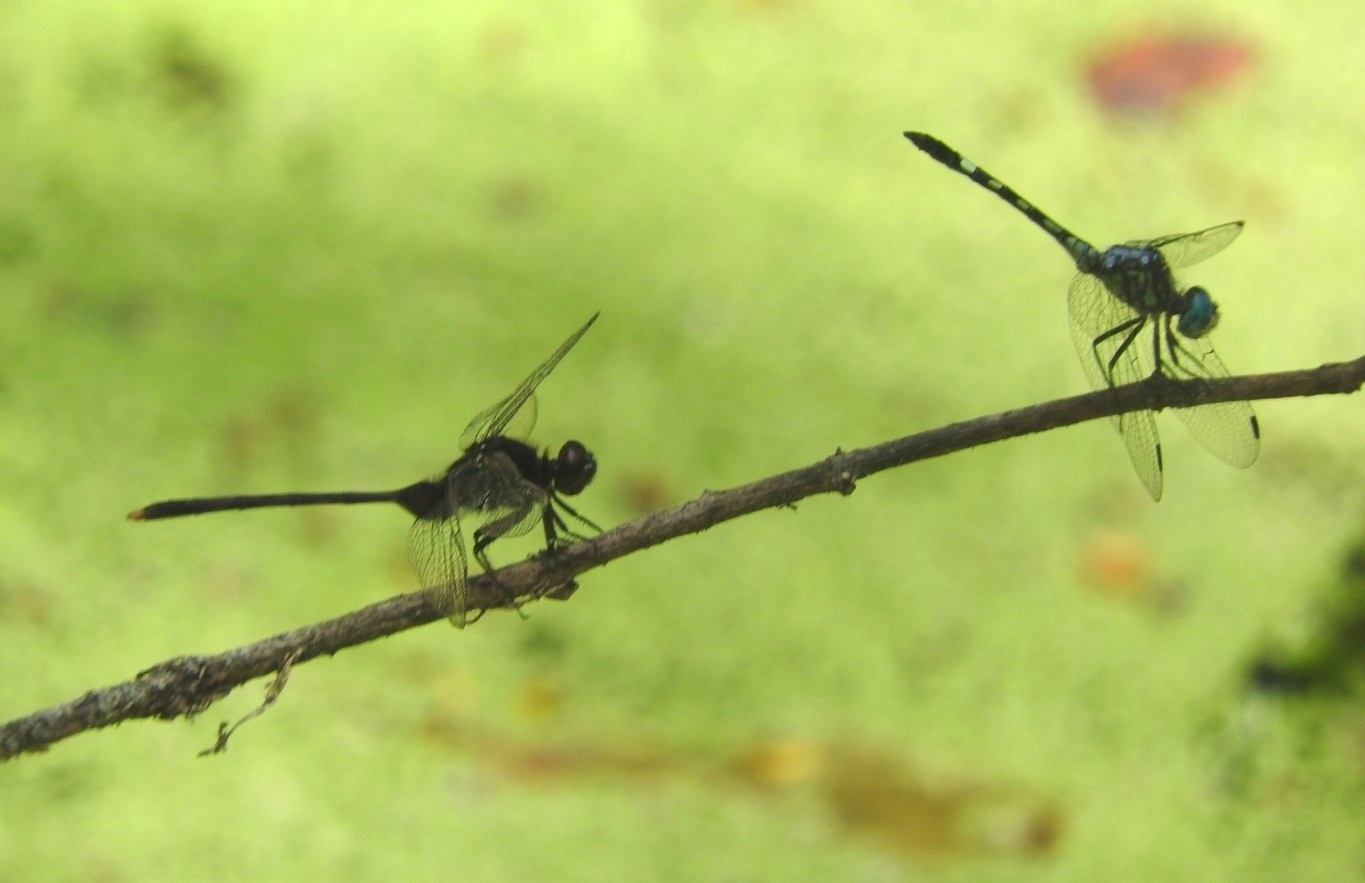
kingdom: Animalia
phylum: Arthropoda
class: Insecta
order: Odonata
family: Libellulidae
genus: Micrathyria
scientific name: Micrathyria hagenii
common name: Thornbush dasher
